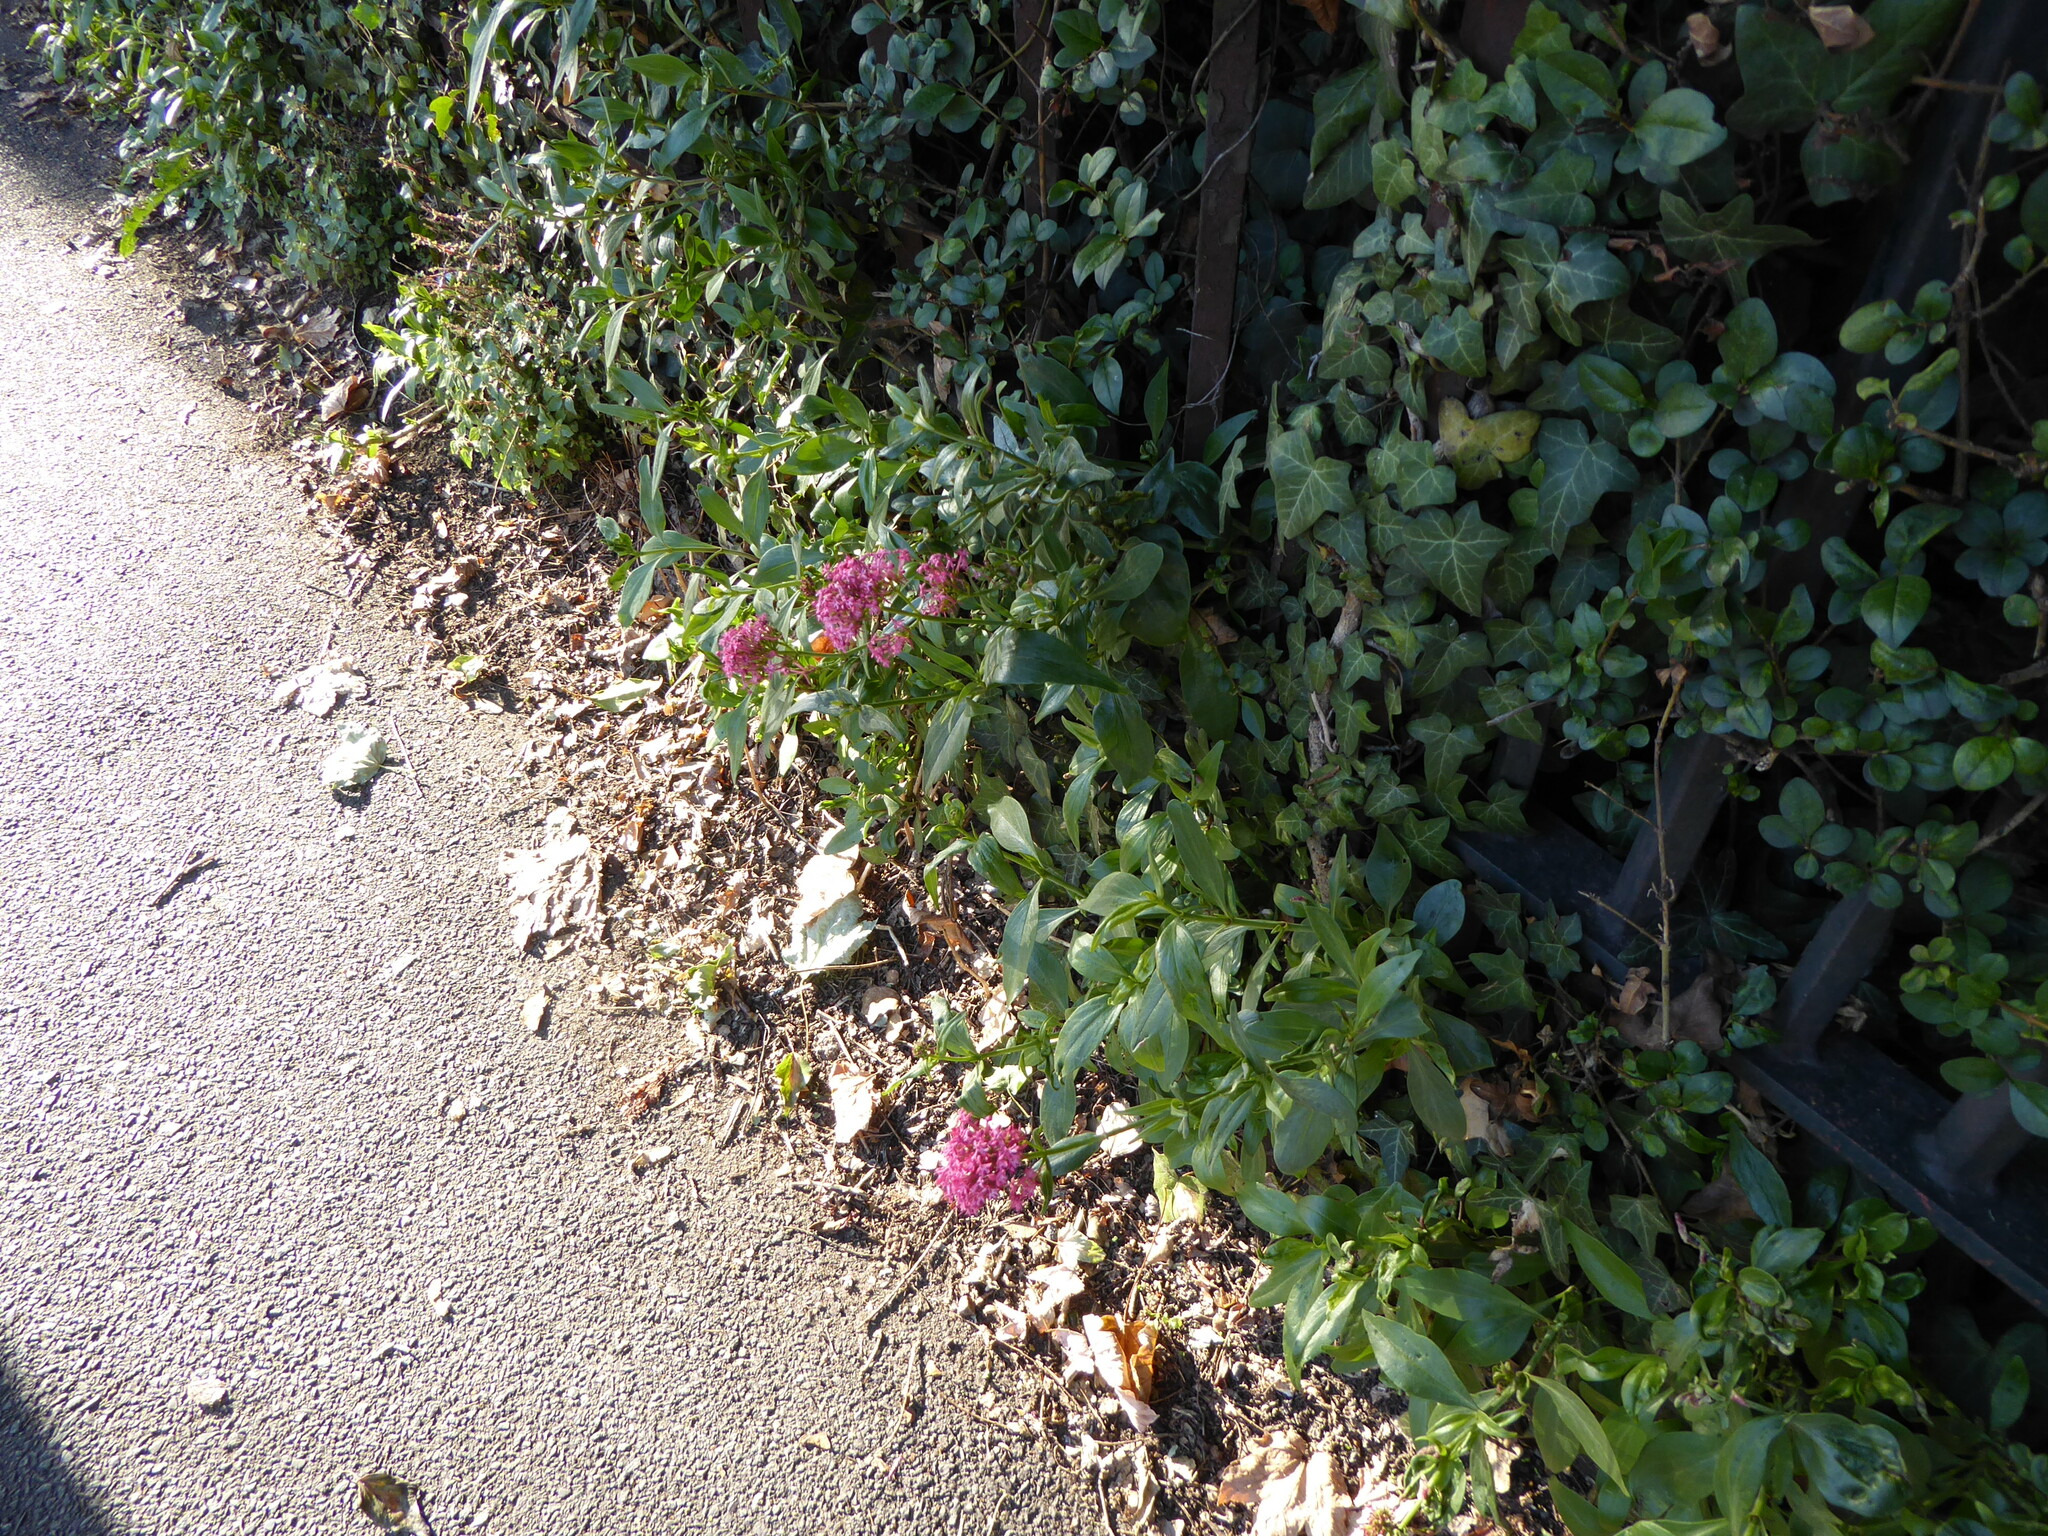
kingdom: Plantae
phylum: Tracheophyta
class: Magnoliopsida
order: Dipsacales
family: Caprifoliaceae
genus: Centranthus
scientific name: Centranthus ruber
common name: Red valerian
